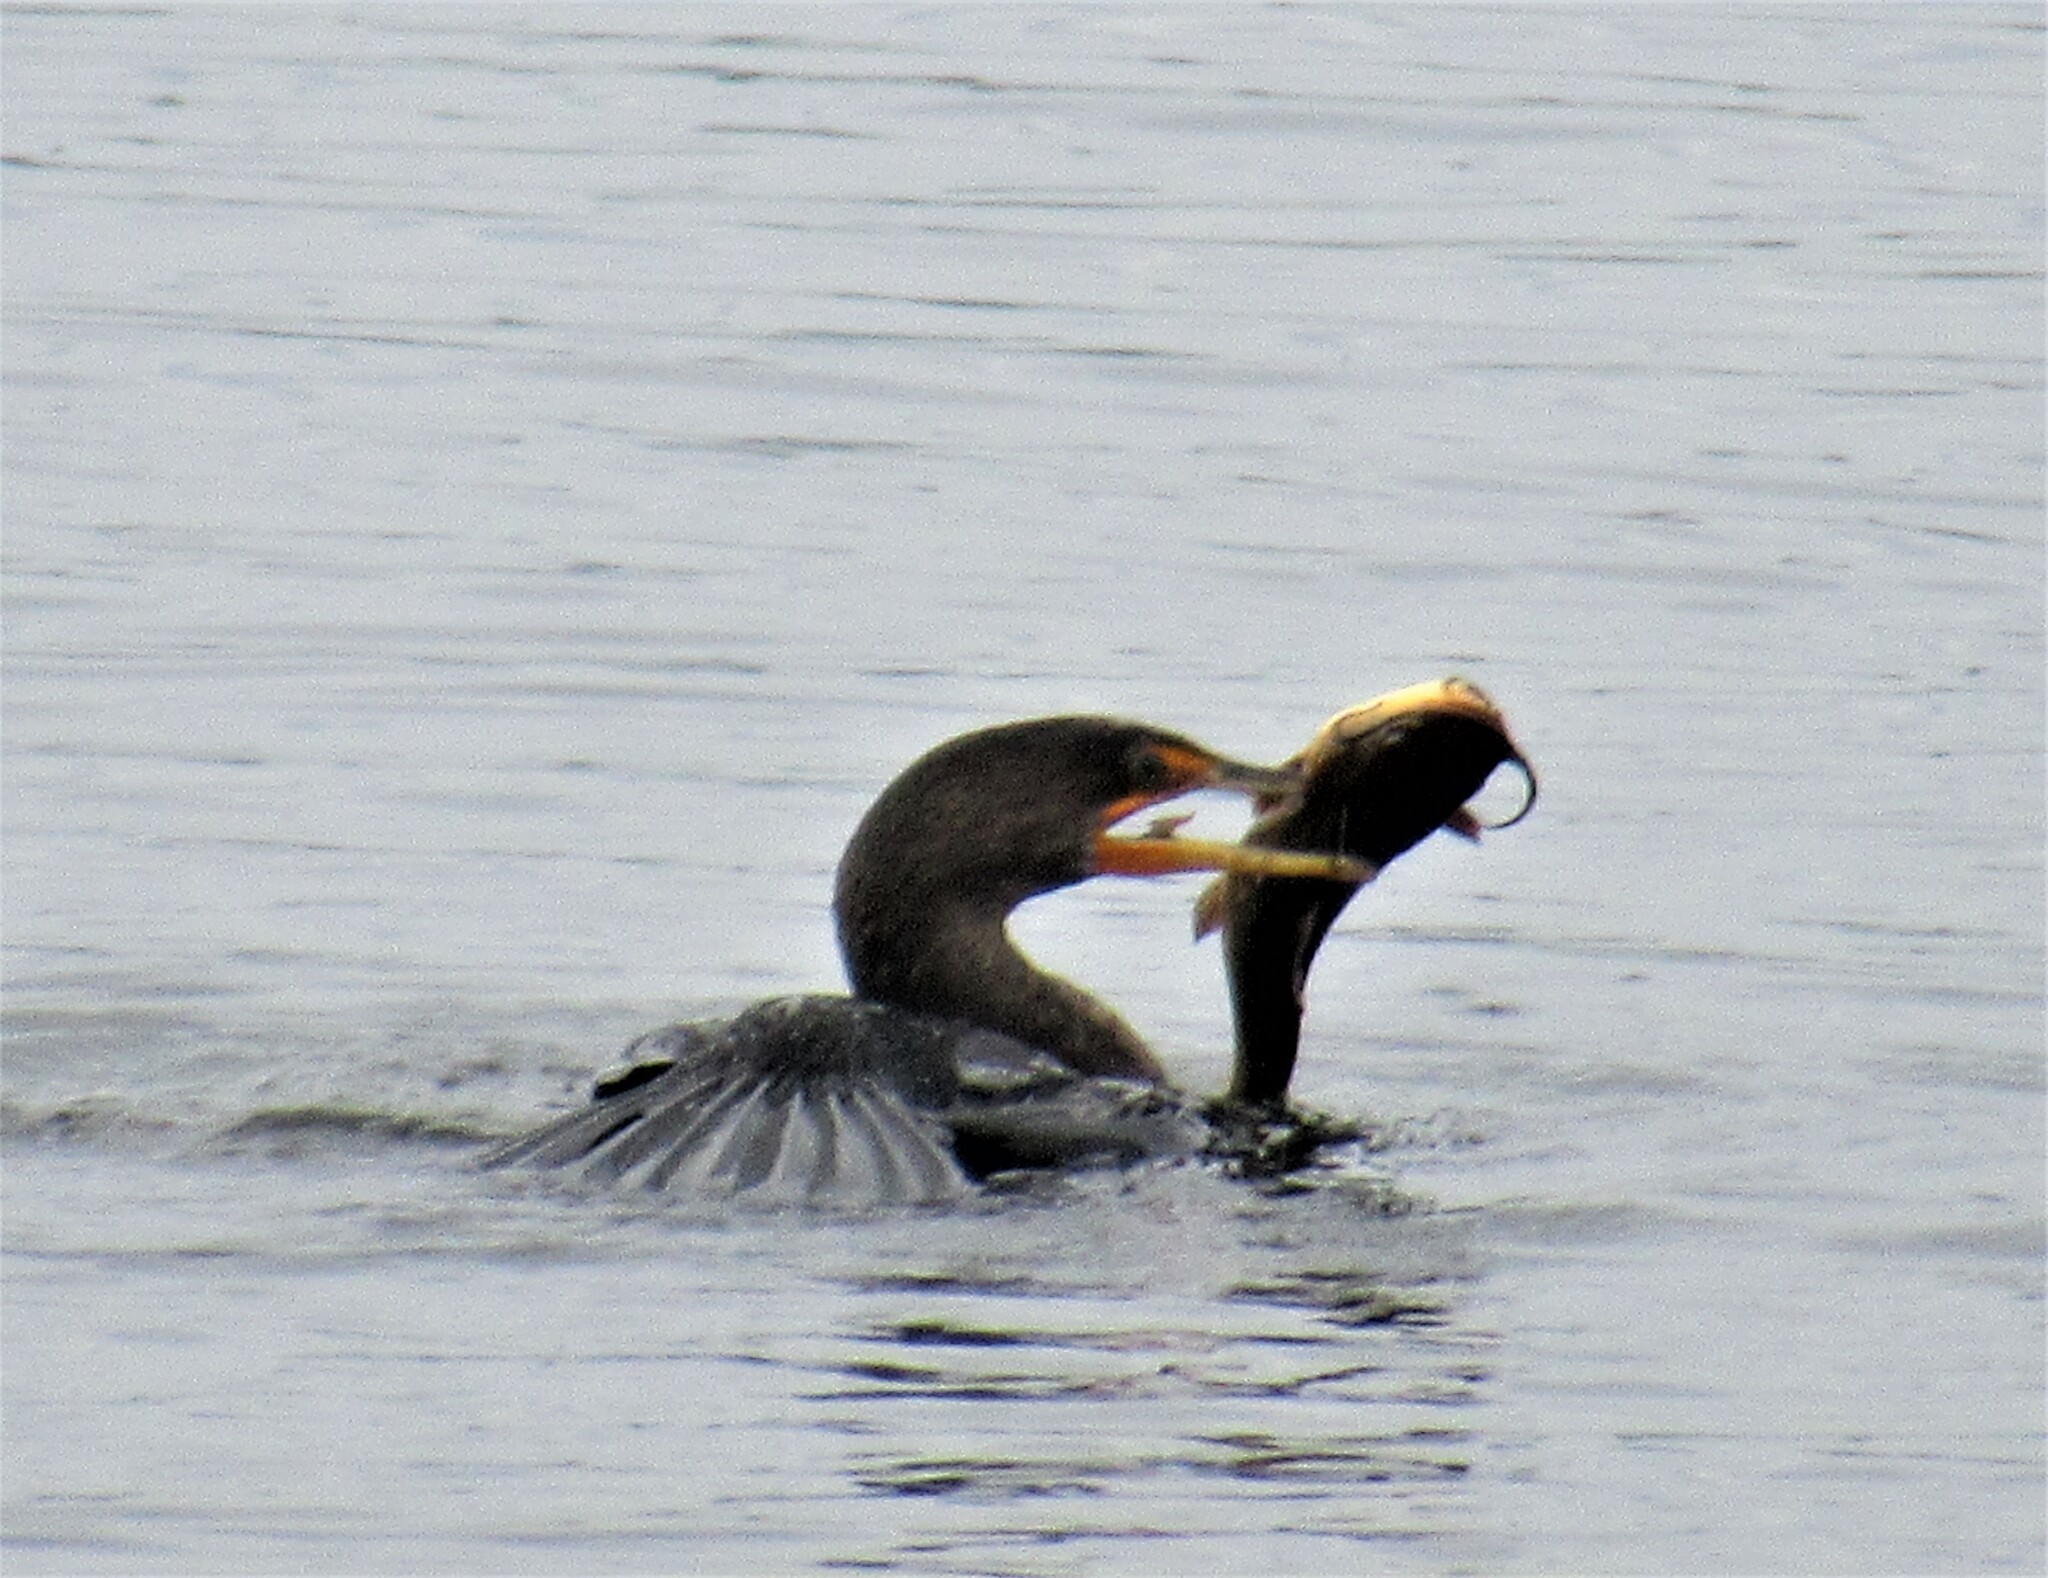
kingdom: Animalia
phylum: Chordata
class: Aves
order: Suliformes
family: Phalacrocoracidae
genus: Phalacrocorax
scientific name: Phalacrocorax auritus
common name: Double-crested cormorant
